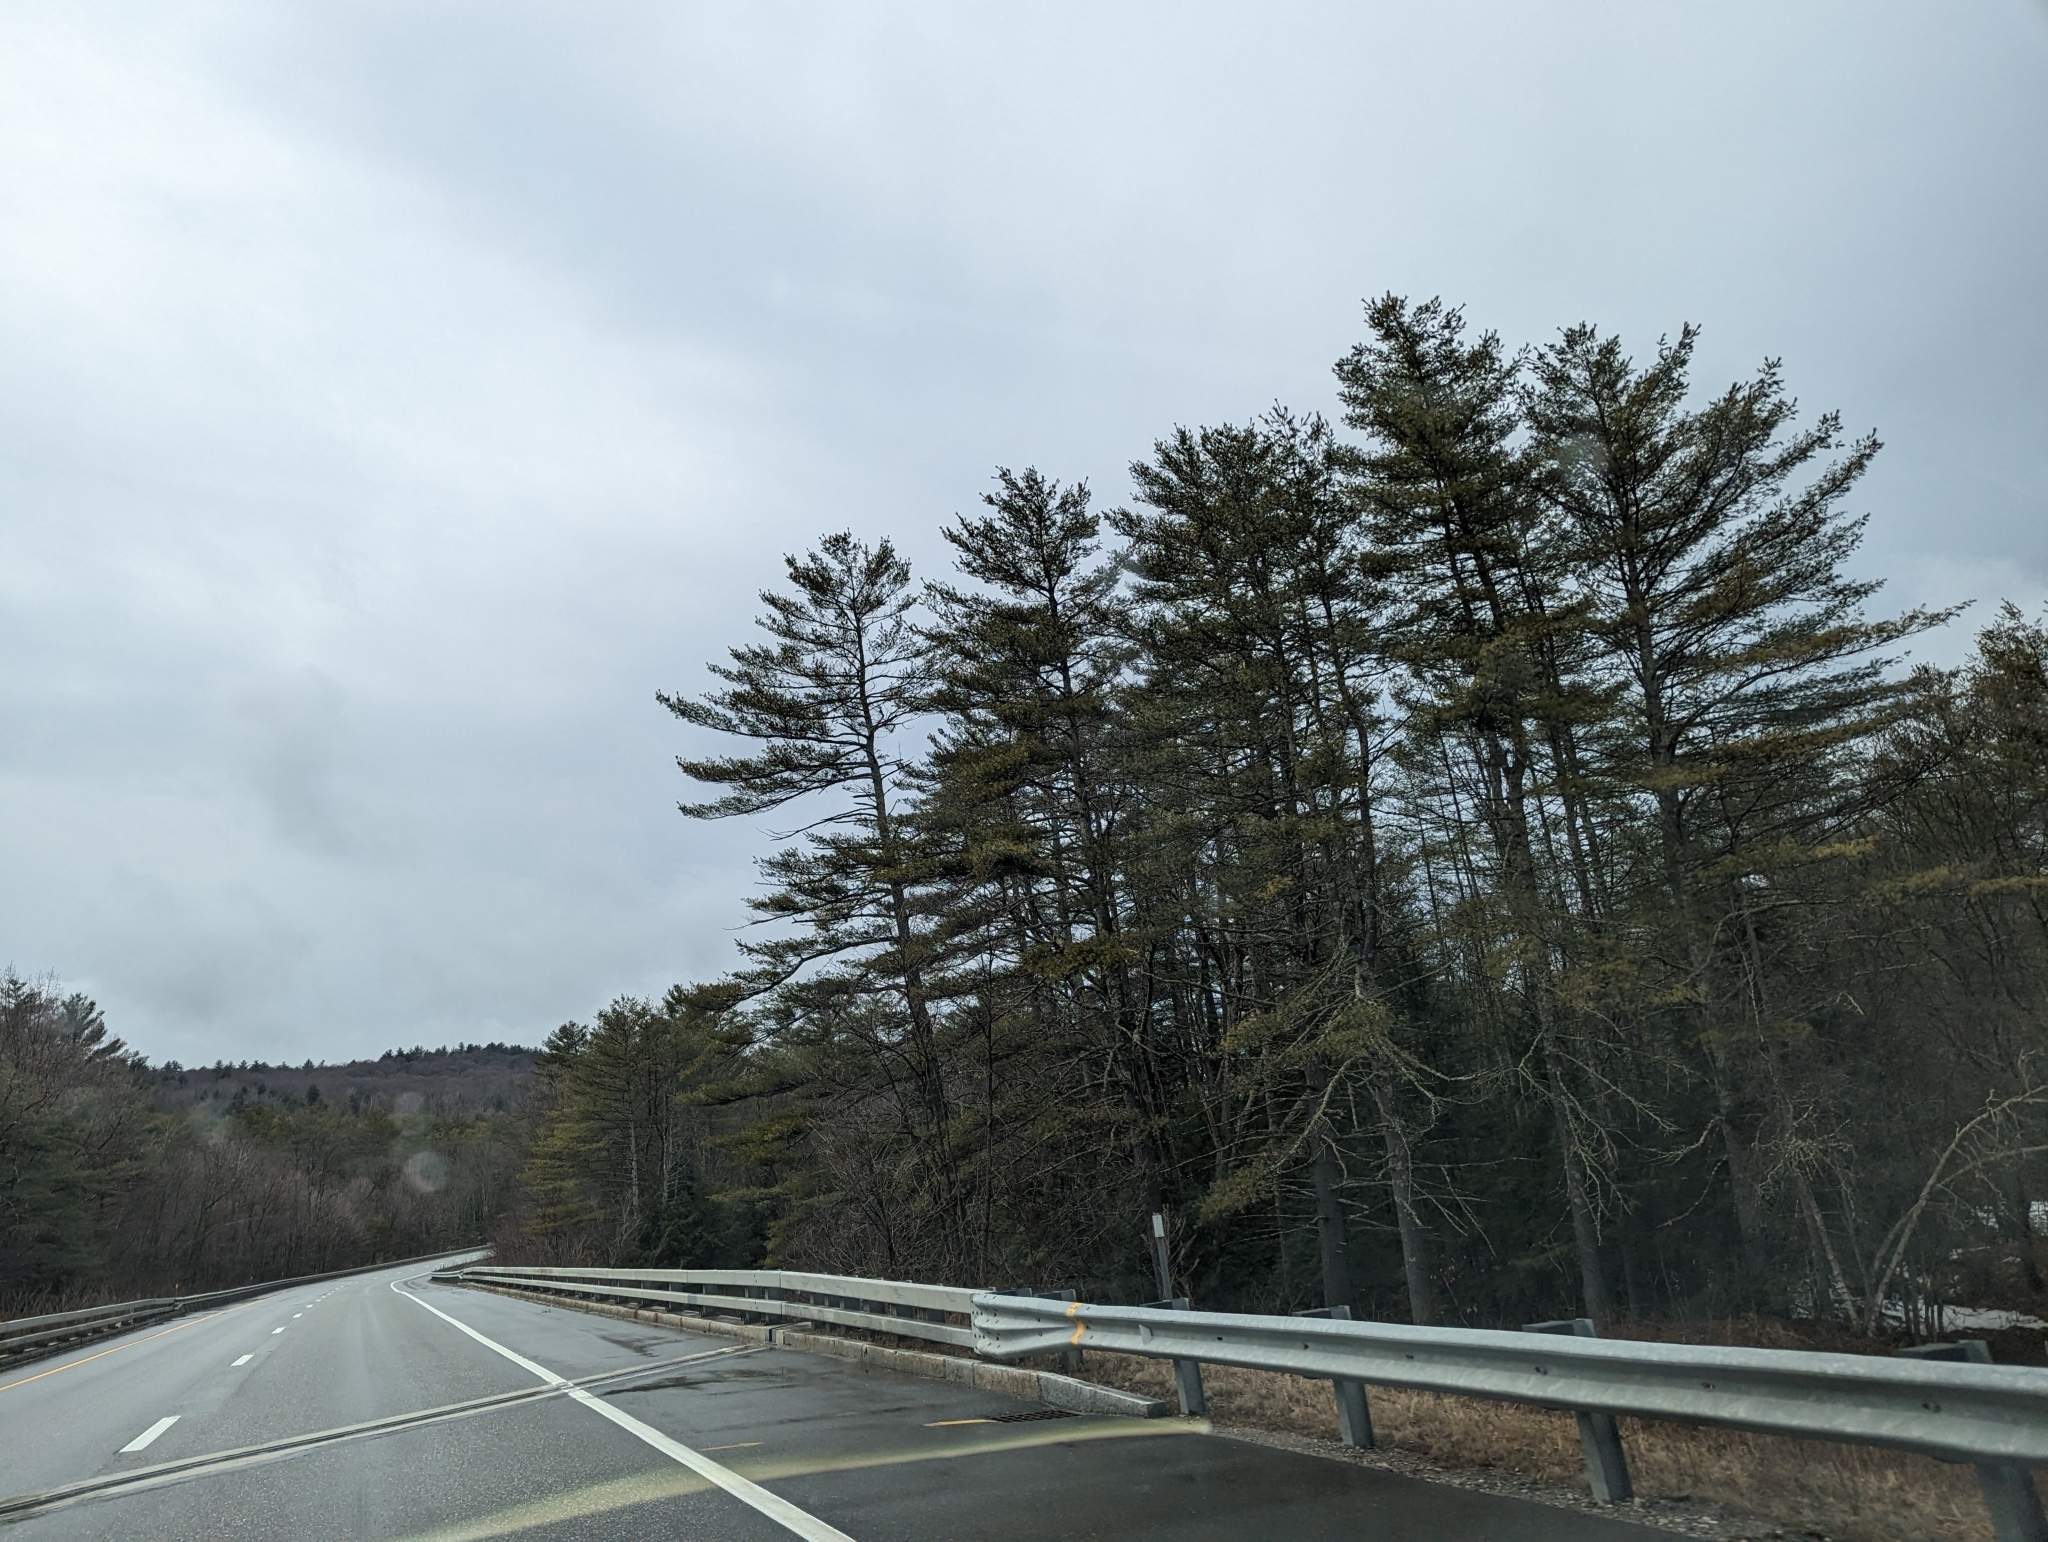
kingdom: Plantae
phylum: Tracheophyta
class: Pinopsida
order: Pinales
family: Pinaceae
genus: Pinus
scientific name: Pinus strobus
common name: Weymouth pine
